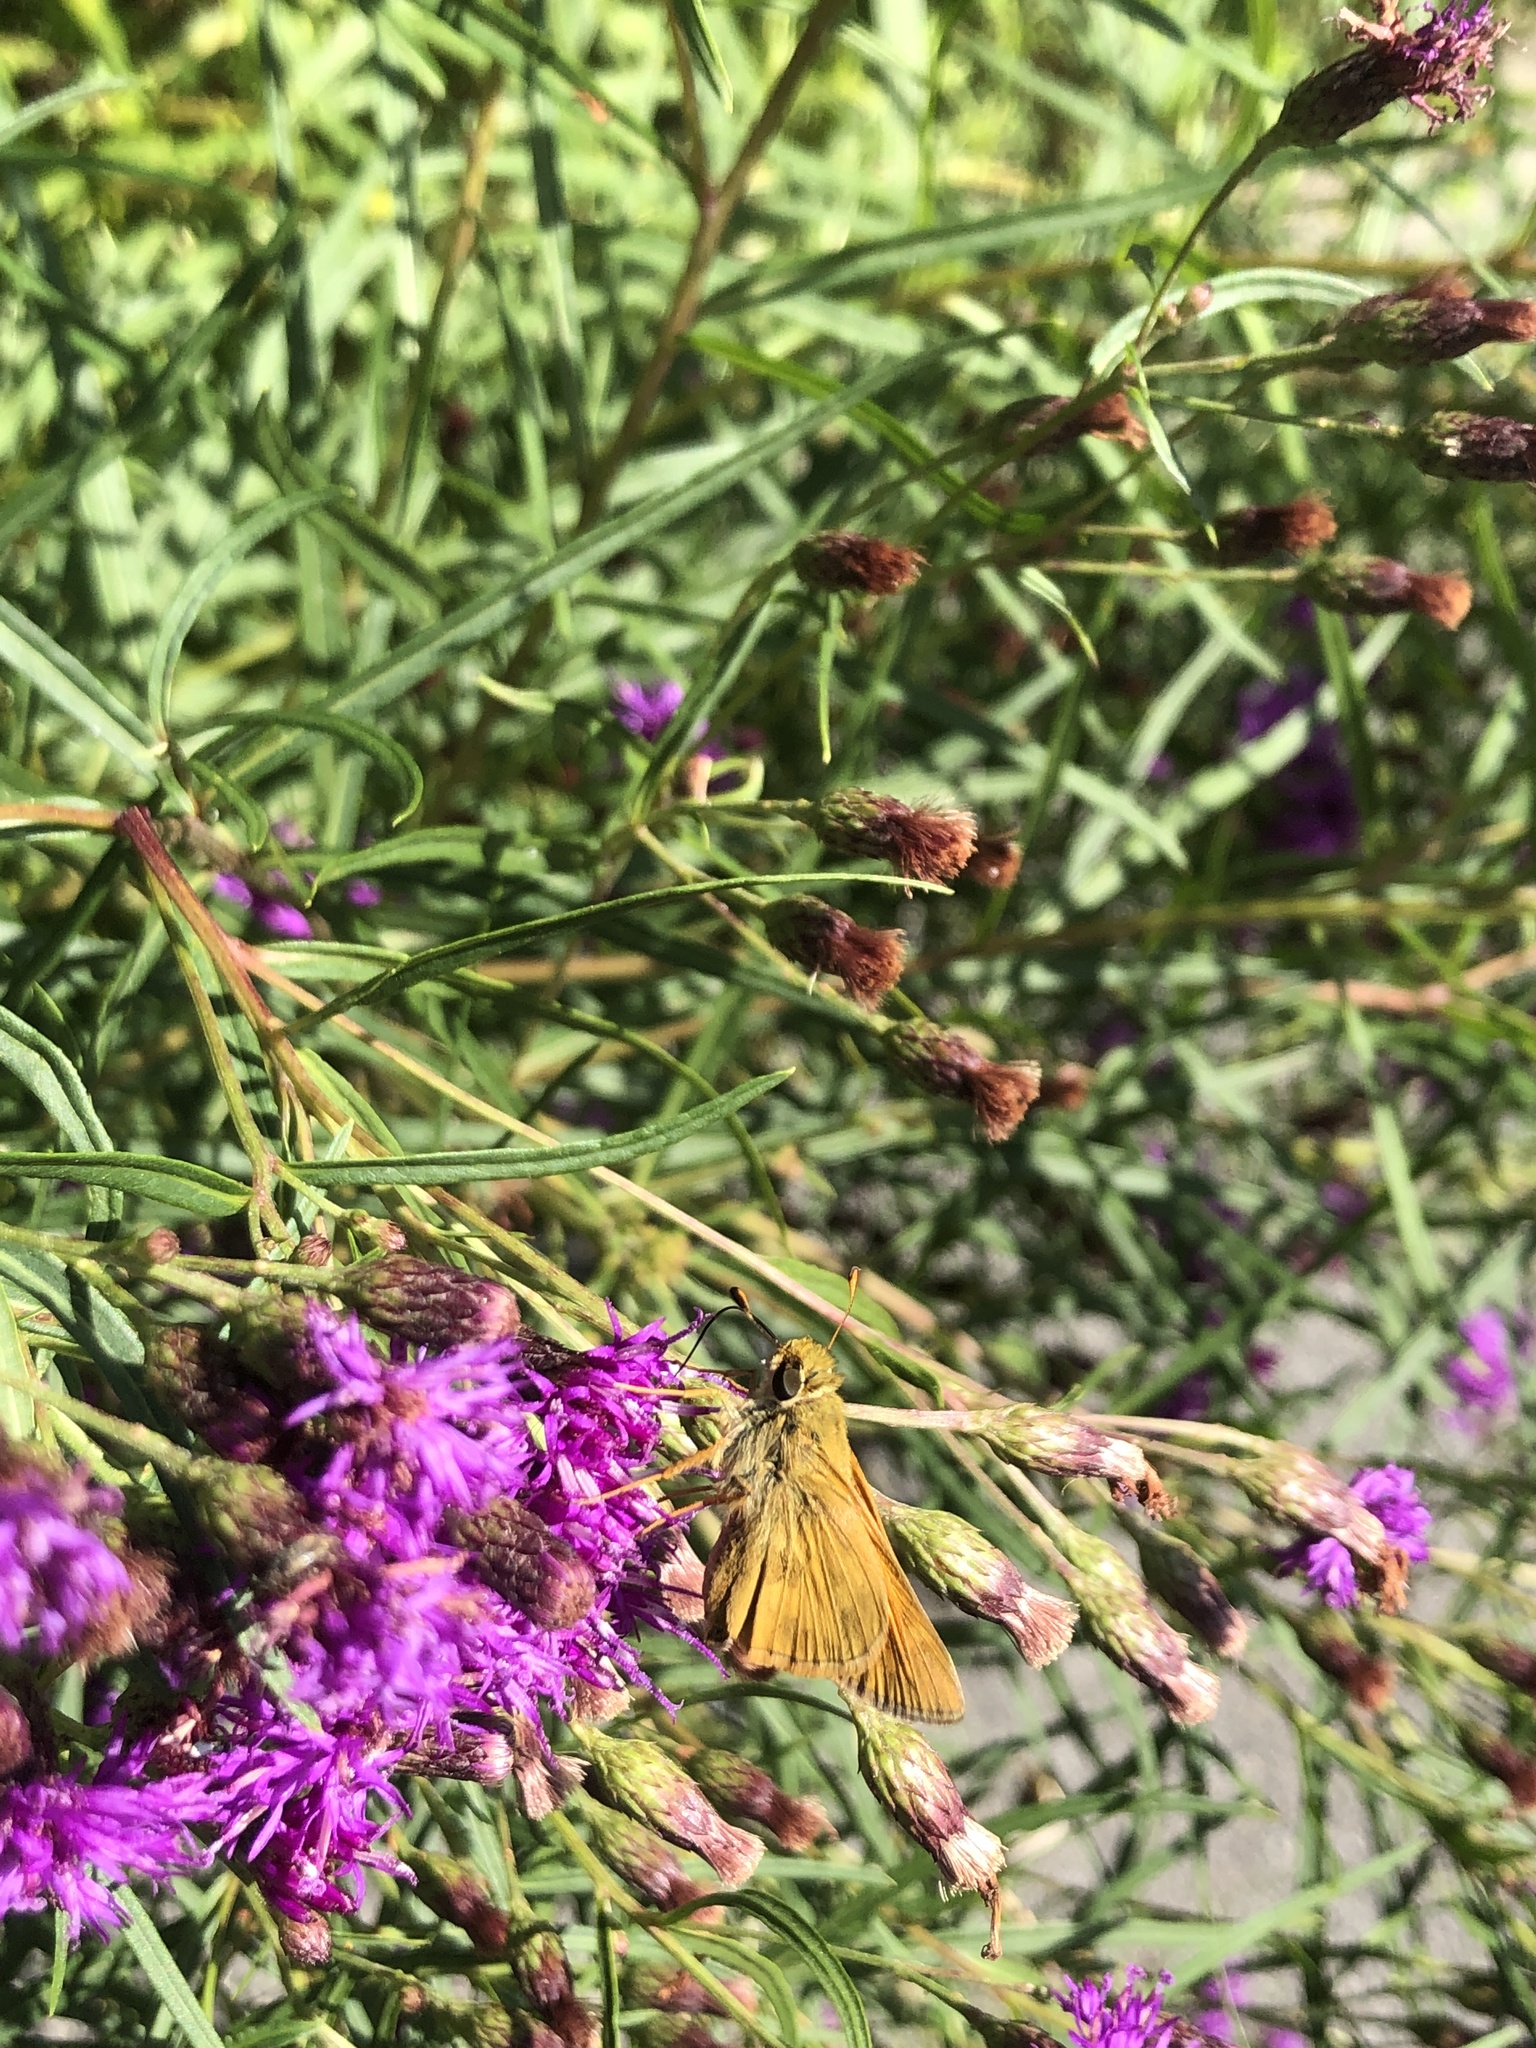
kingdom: Animalia
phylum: Arthropoda
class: Insecta
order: Lepidoptera
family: Hesperiidae
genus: Atalopedes
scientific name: Atalopedes
